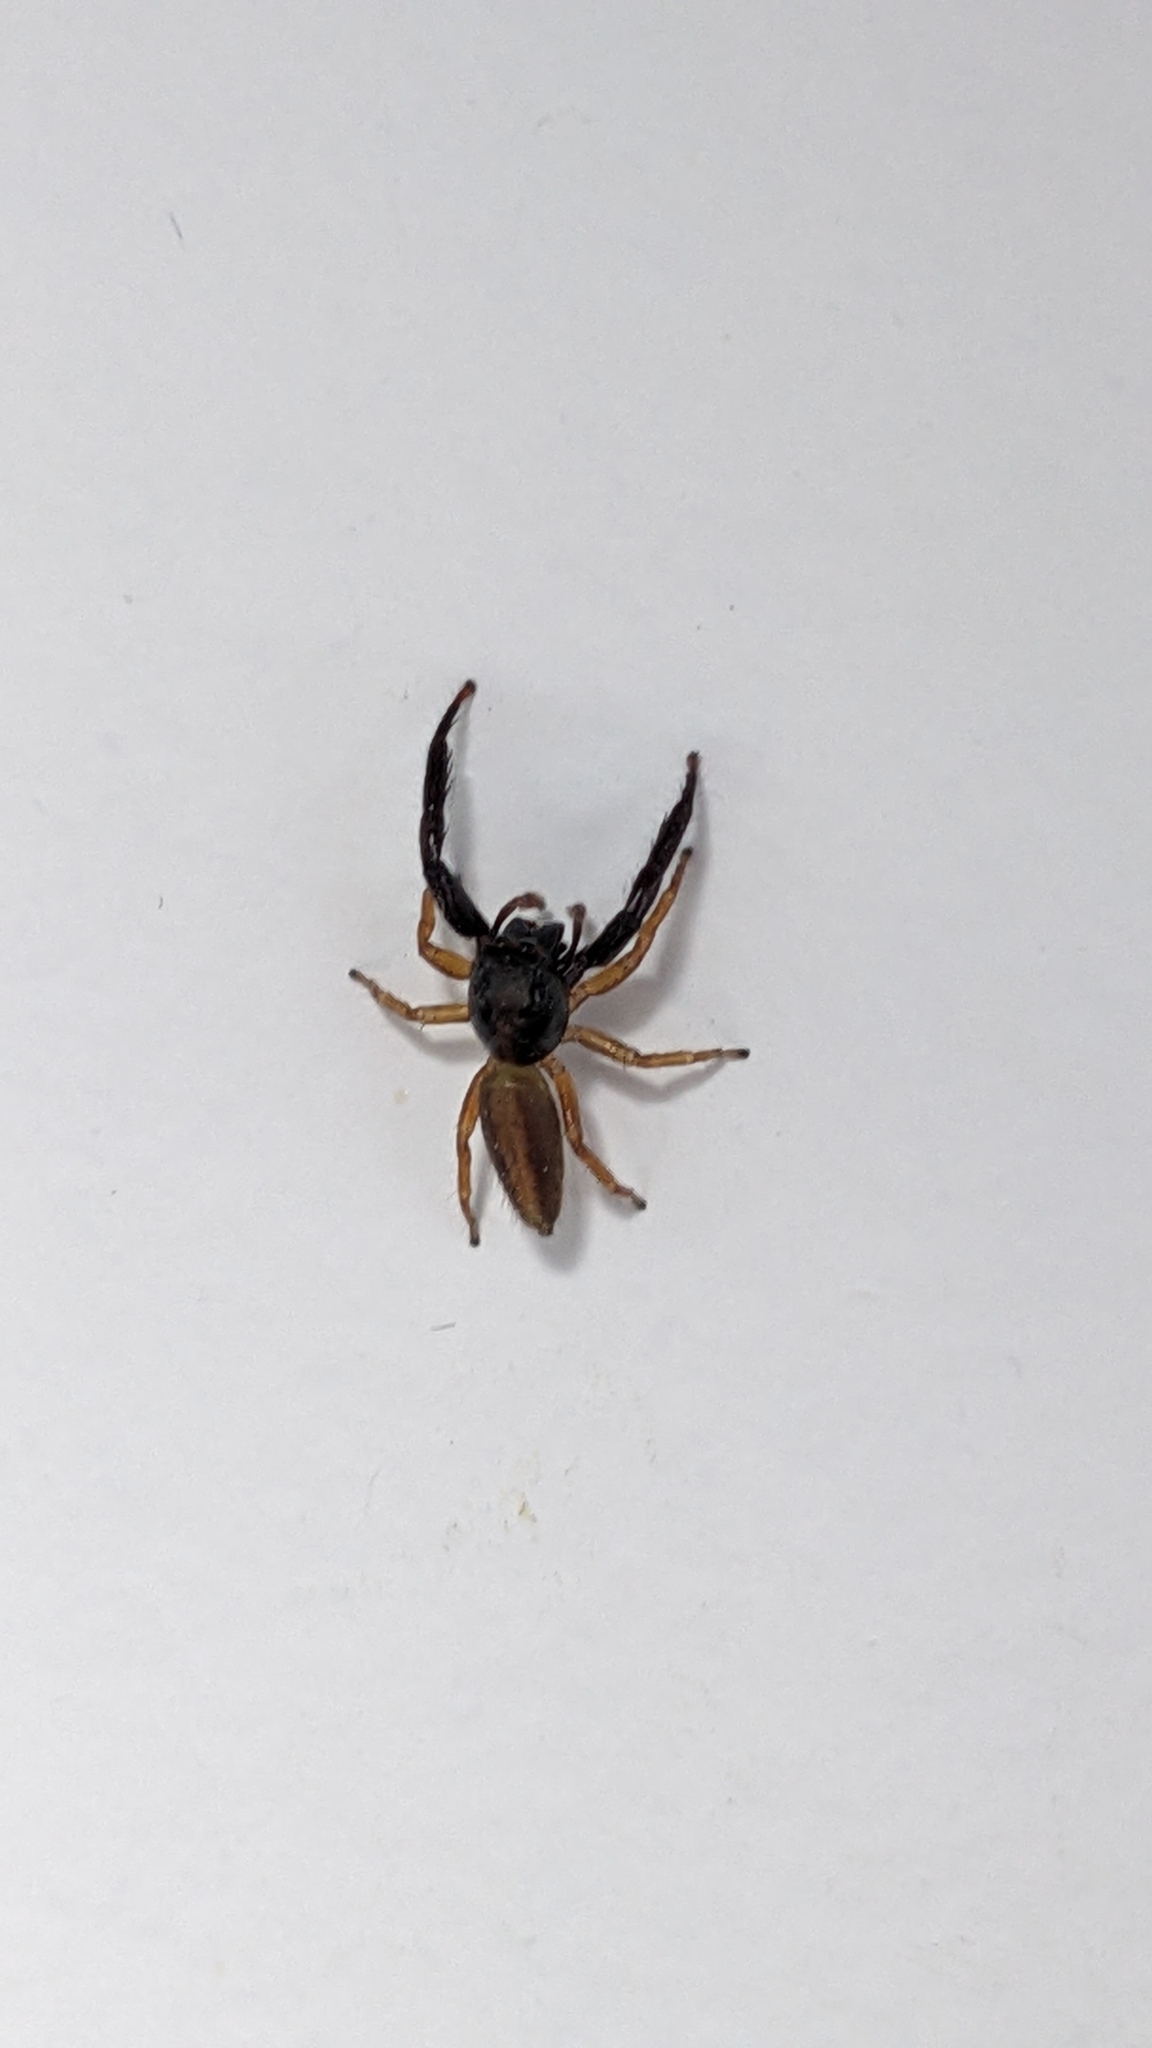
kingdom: Animalia
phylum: Arthropoda
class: Arachnida
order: Araneae
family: Salticidae
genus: Trite
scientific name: Trite planiceps
